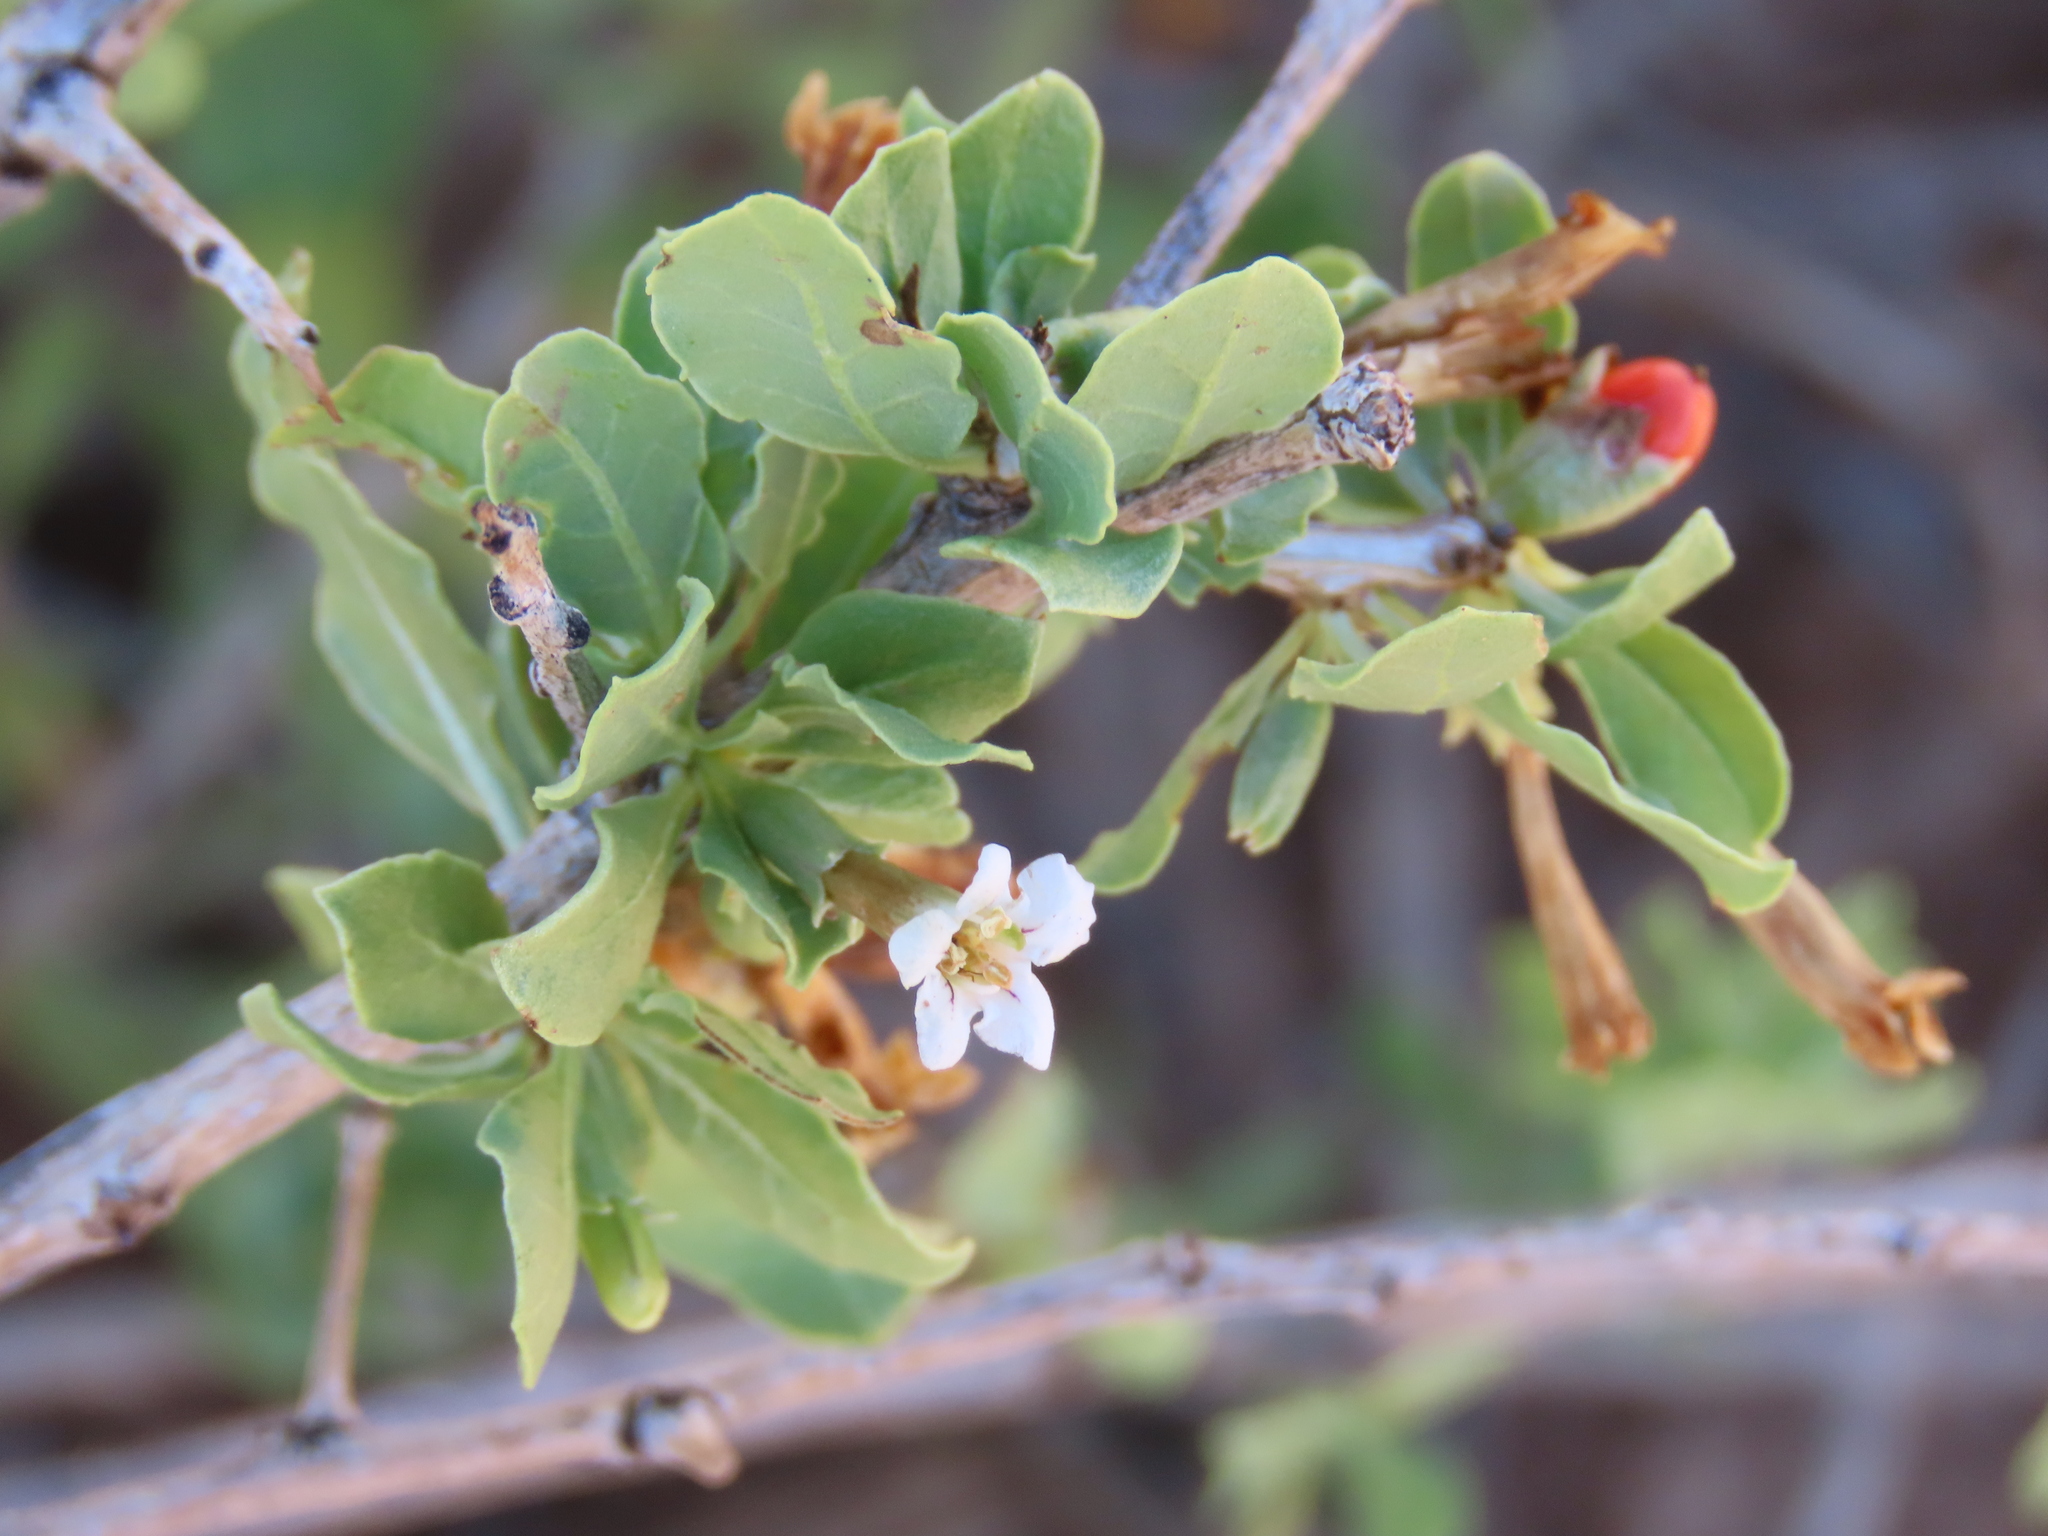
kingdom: Plantae
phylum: Tracheophyta
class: Magnoliopsida
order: Solanales
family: Solanaceae
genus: Lycium
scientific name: Lycium eenii
